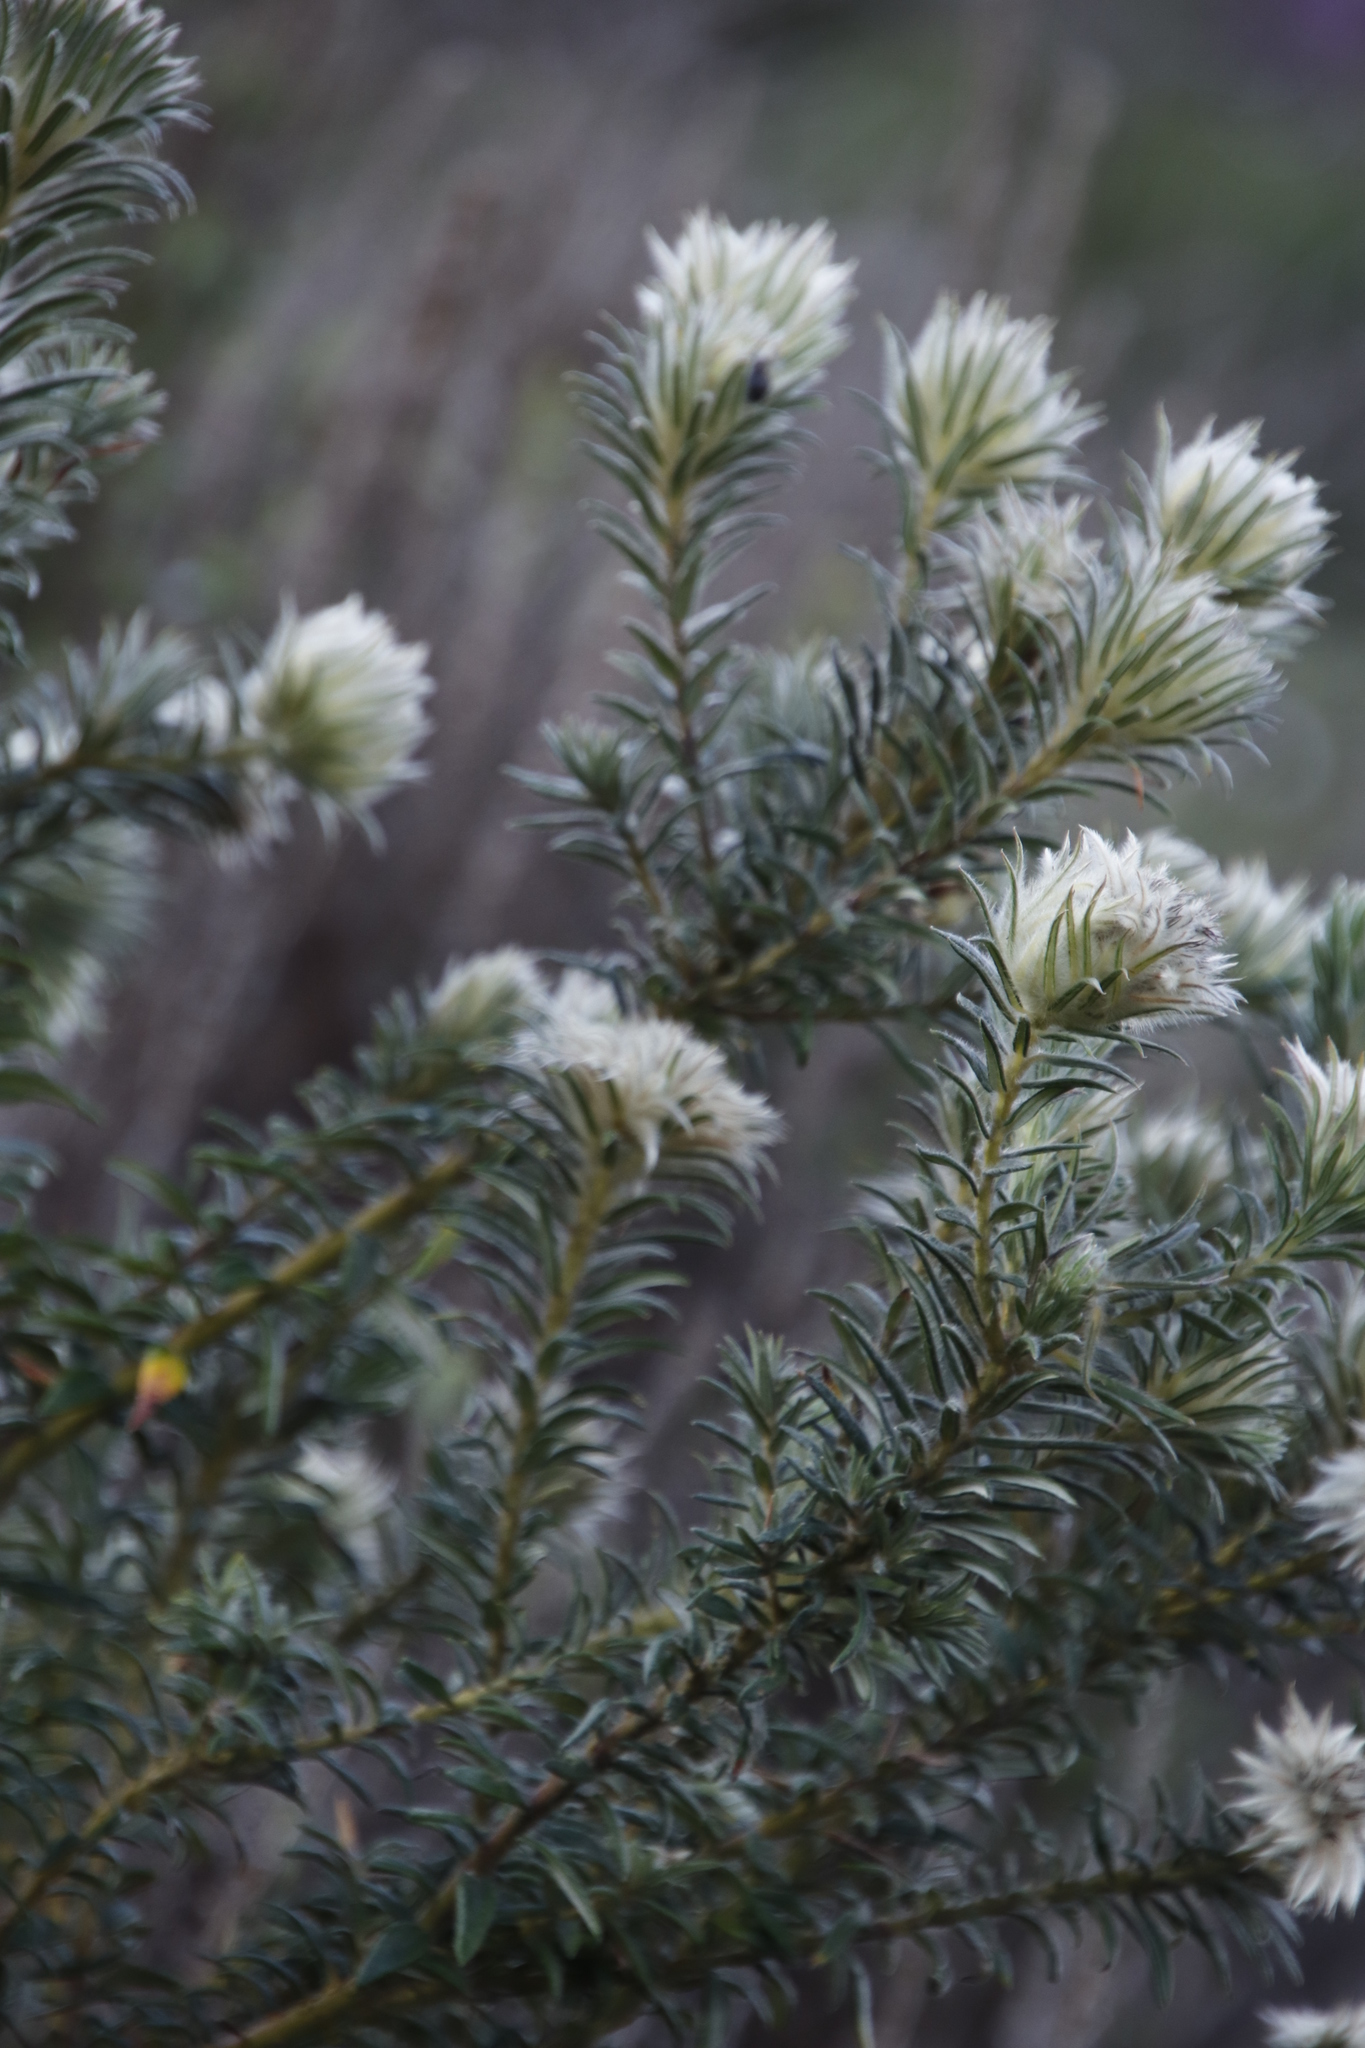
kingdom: Plantae
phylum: Tracheophyta
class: Magnoliopsida
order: Rosales
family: Rhamnaceae
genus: Phylica
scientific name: Phylica pubescens
